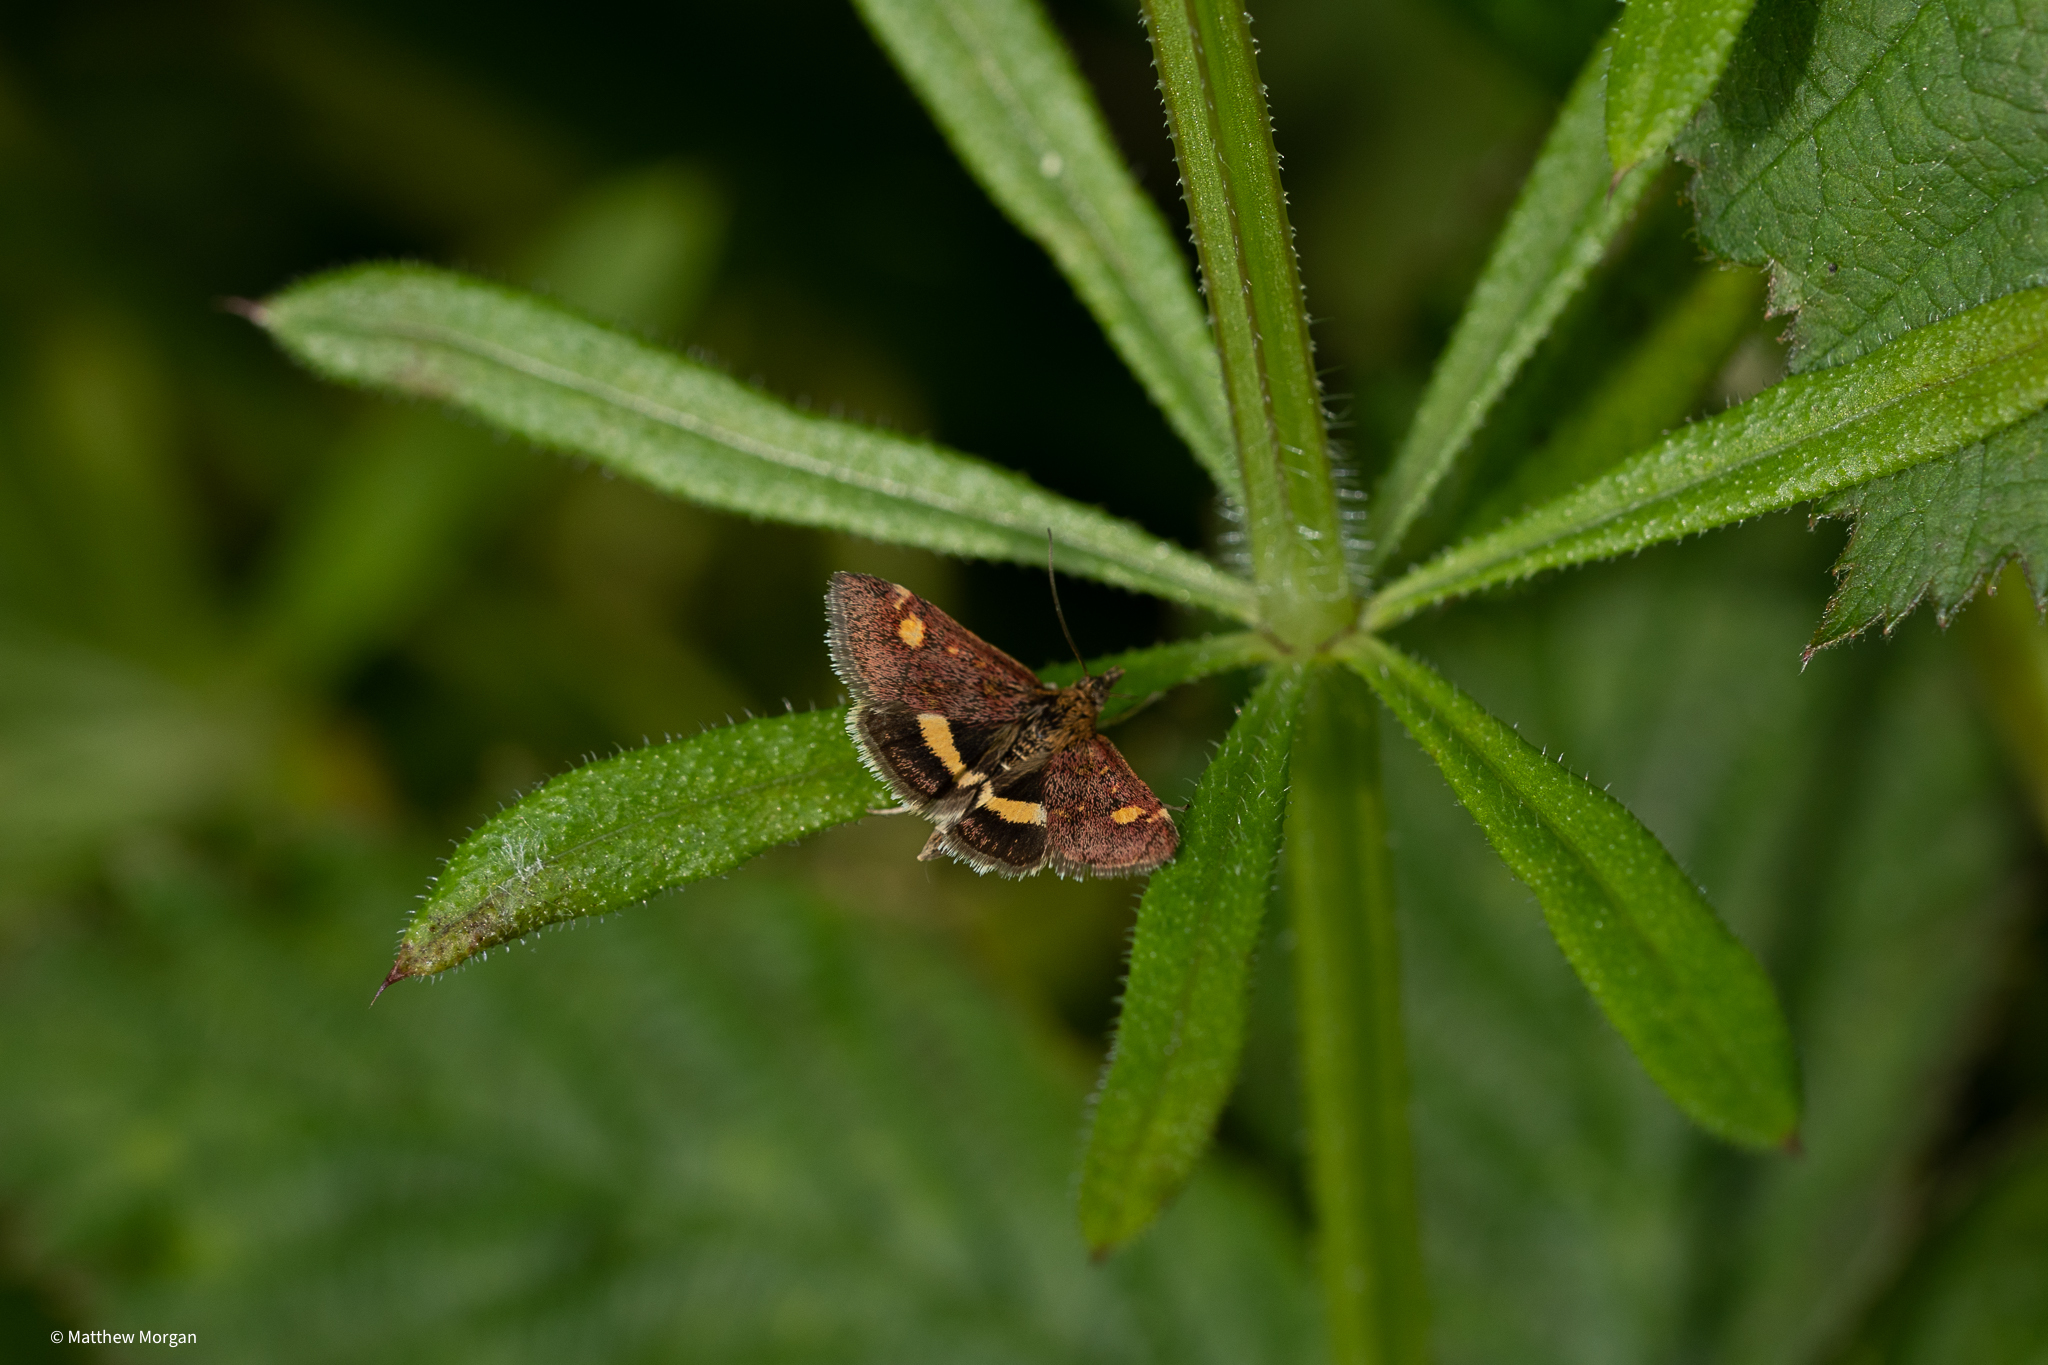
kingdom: Animalia
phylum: Arthropoda
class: Insecta
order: Lepidoptera
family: Crambidae
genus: Pyrausta
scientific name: Pyrausta aurata
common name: Small purple & gold
